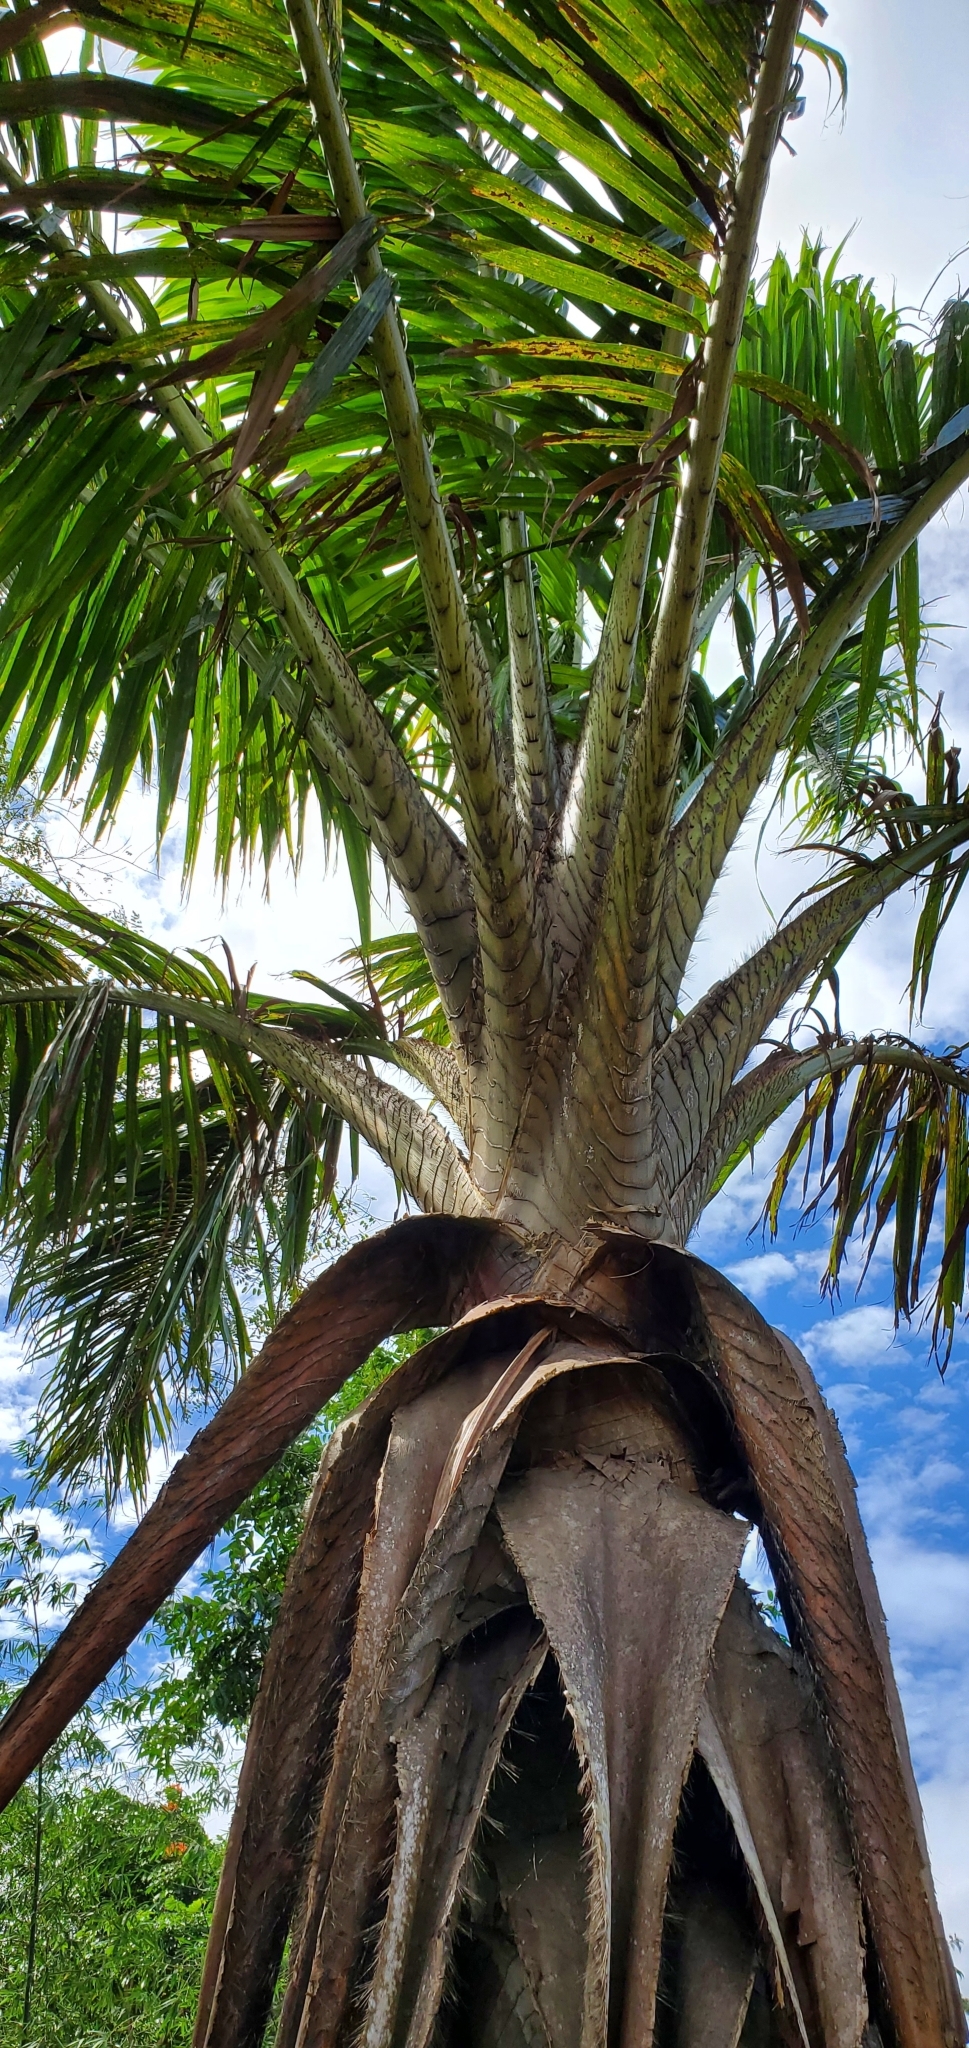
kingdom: Plantae
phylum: Tracheophyta
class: Liliopsida
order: Arecales
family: Arecaceae
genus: Metroxylon
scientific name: Metroxylon vitiense
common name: Fiji sago palm
